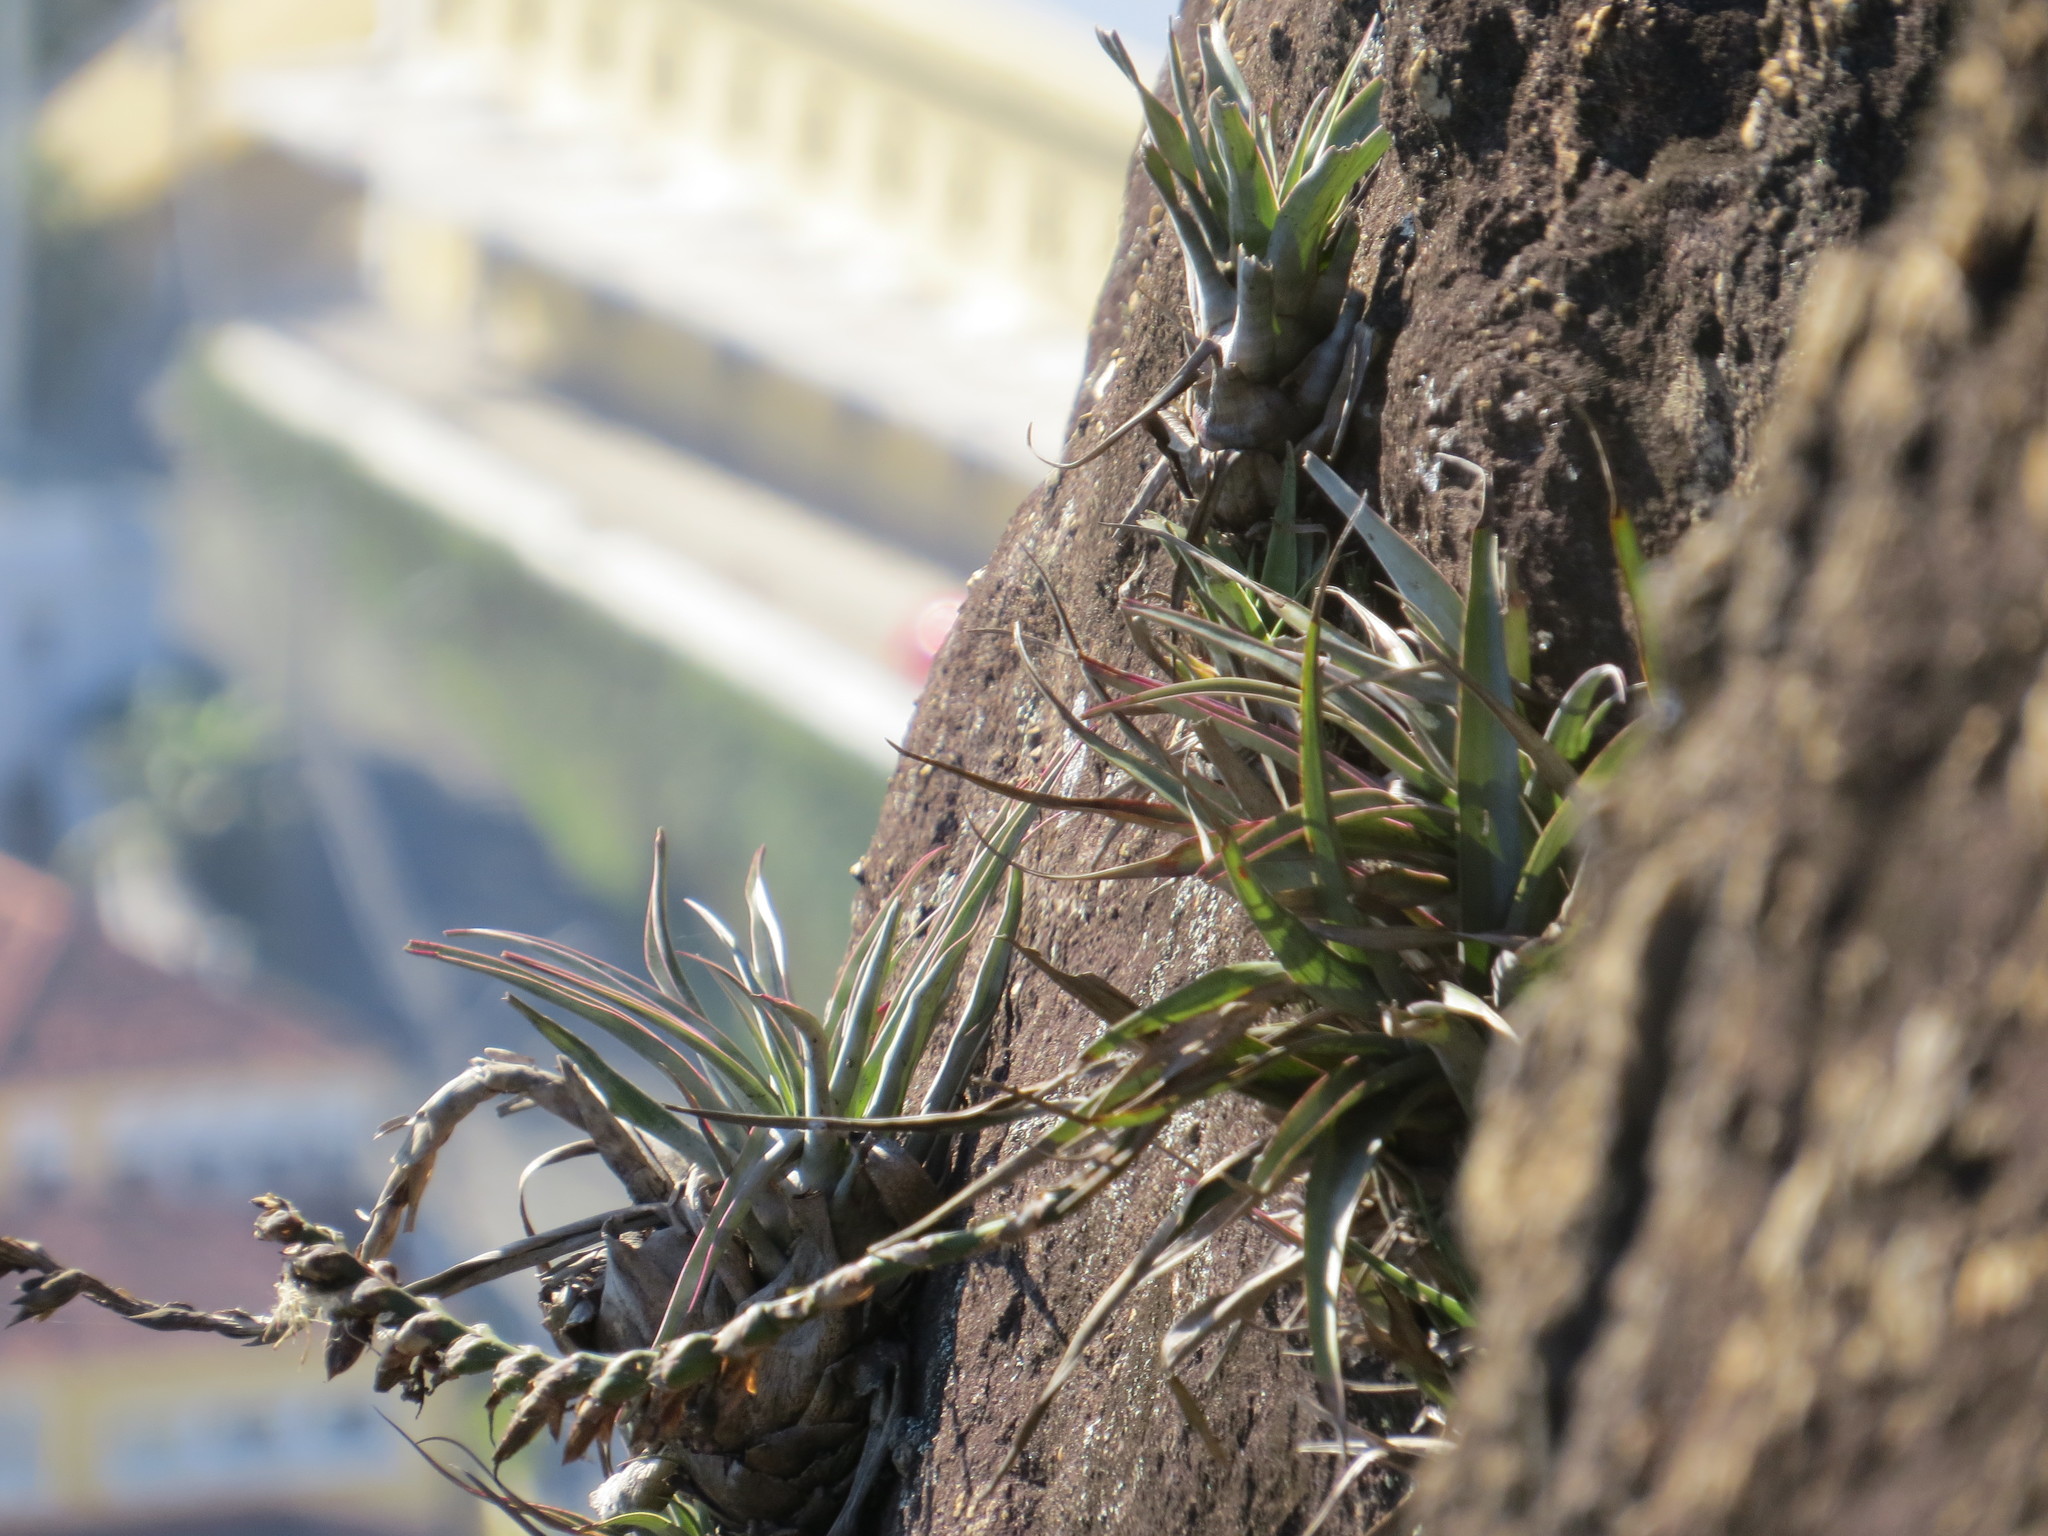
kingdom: Plantae
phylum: Tracheophyta
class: Liliopsida
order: Poales
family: Bromeliaceae
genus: Stigmatodon
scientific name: Stigmatodon goniorachis
